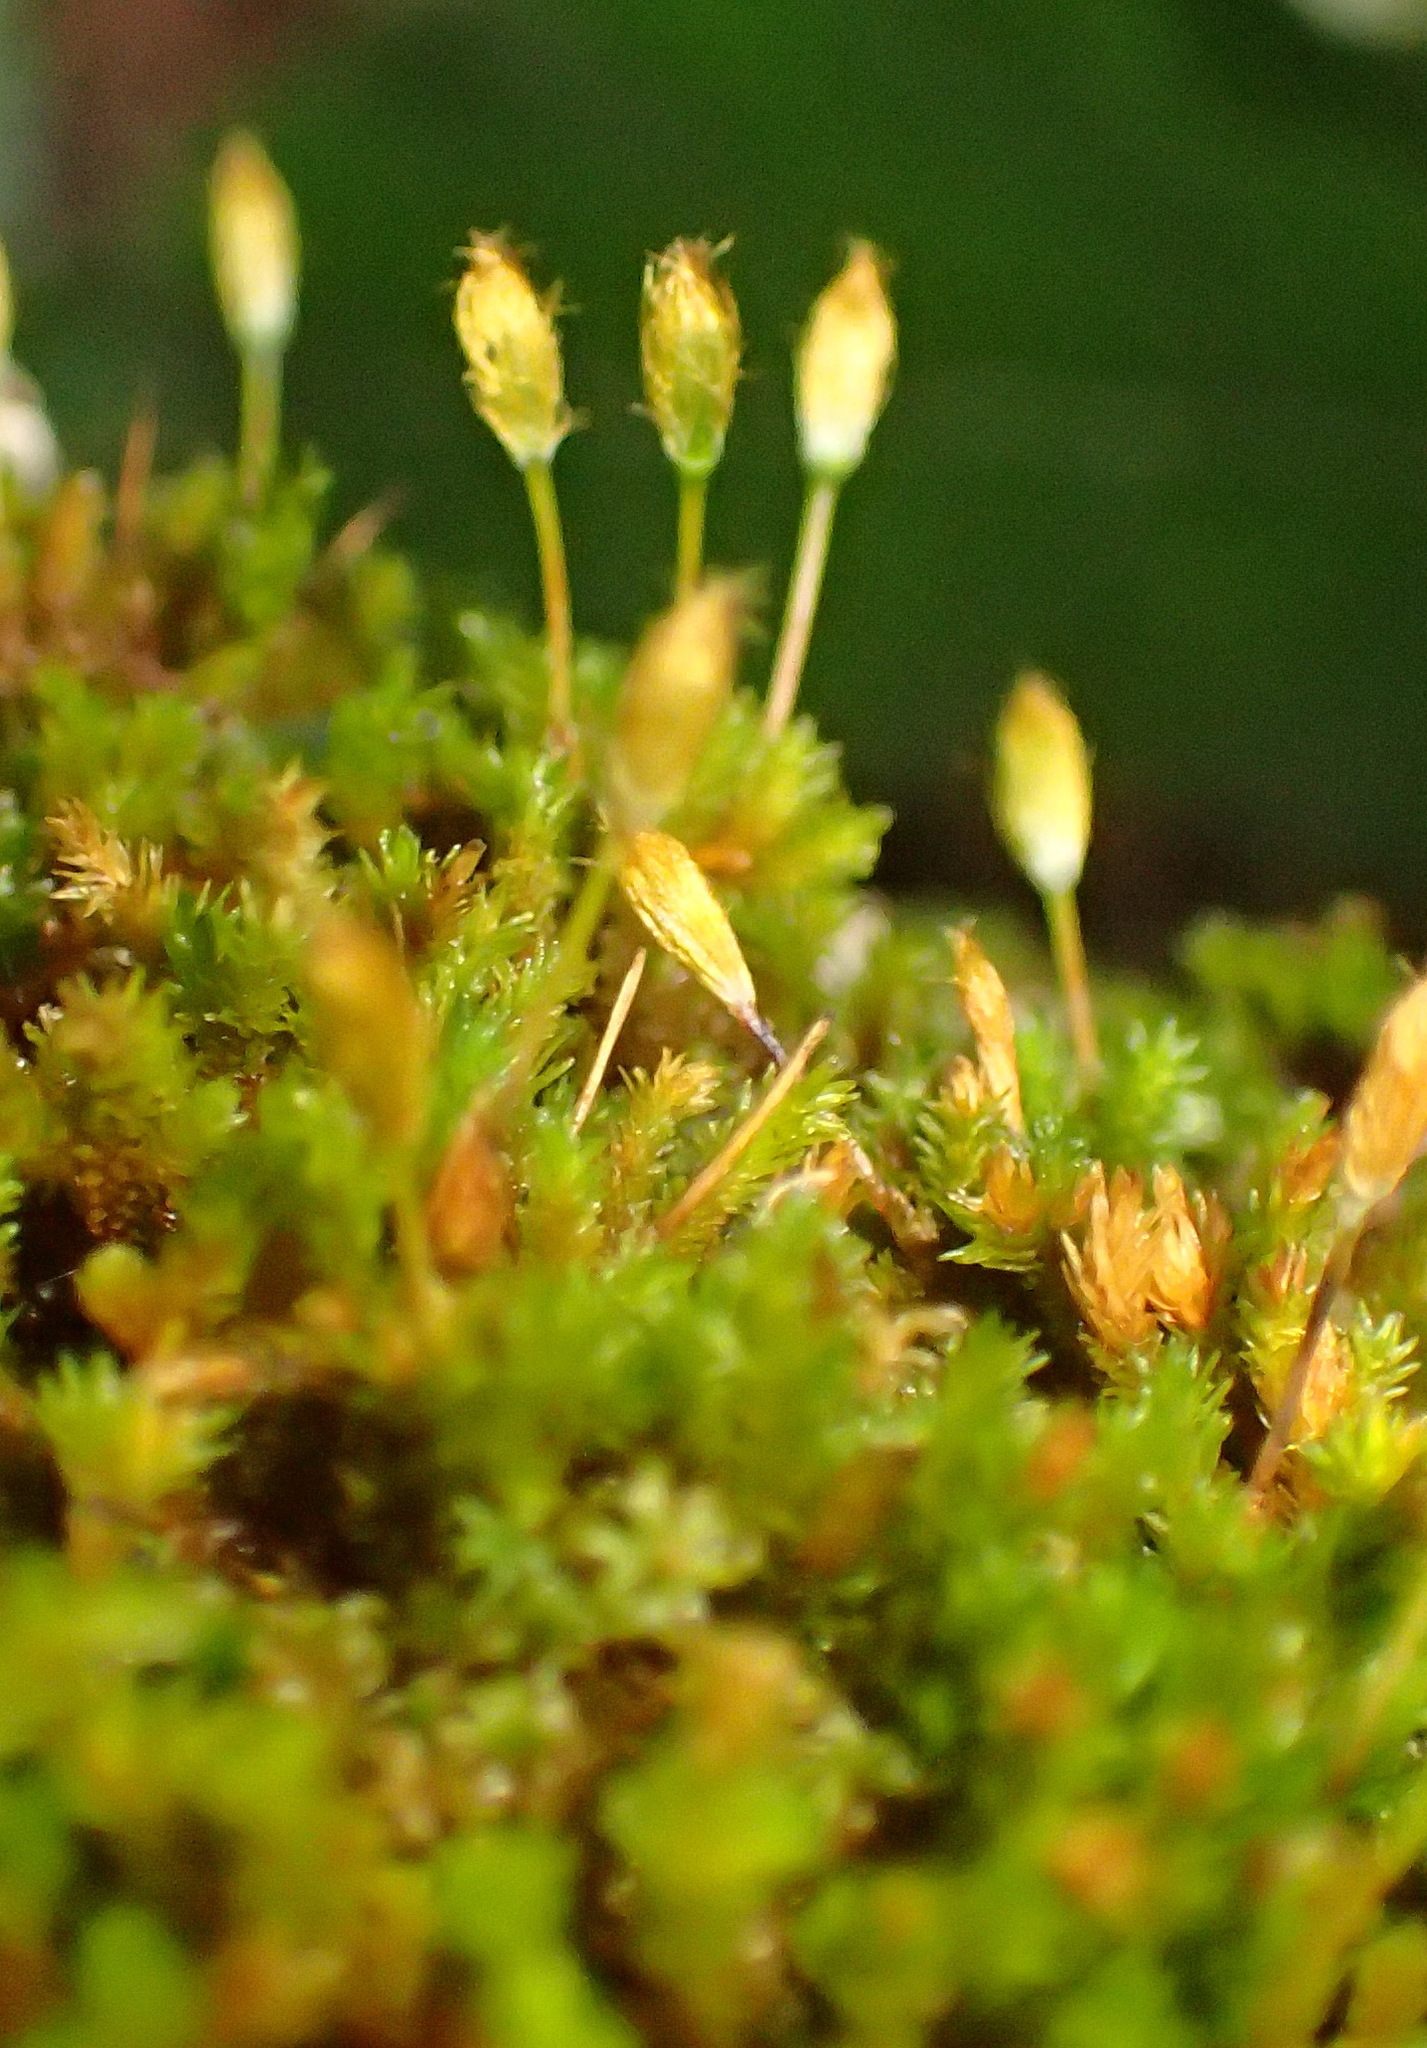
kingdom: Plantae
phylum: Bryophyta
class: Bryopsida
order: Orthotrichales
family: Orthotrichaceae
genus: Macrocoma
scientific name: Macrocoma lycopodioides
